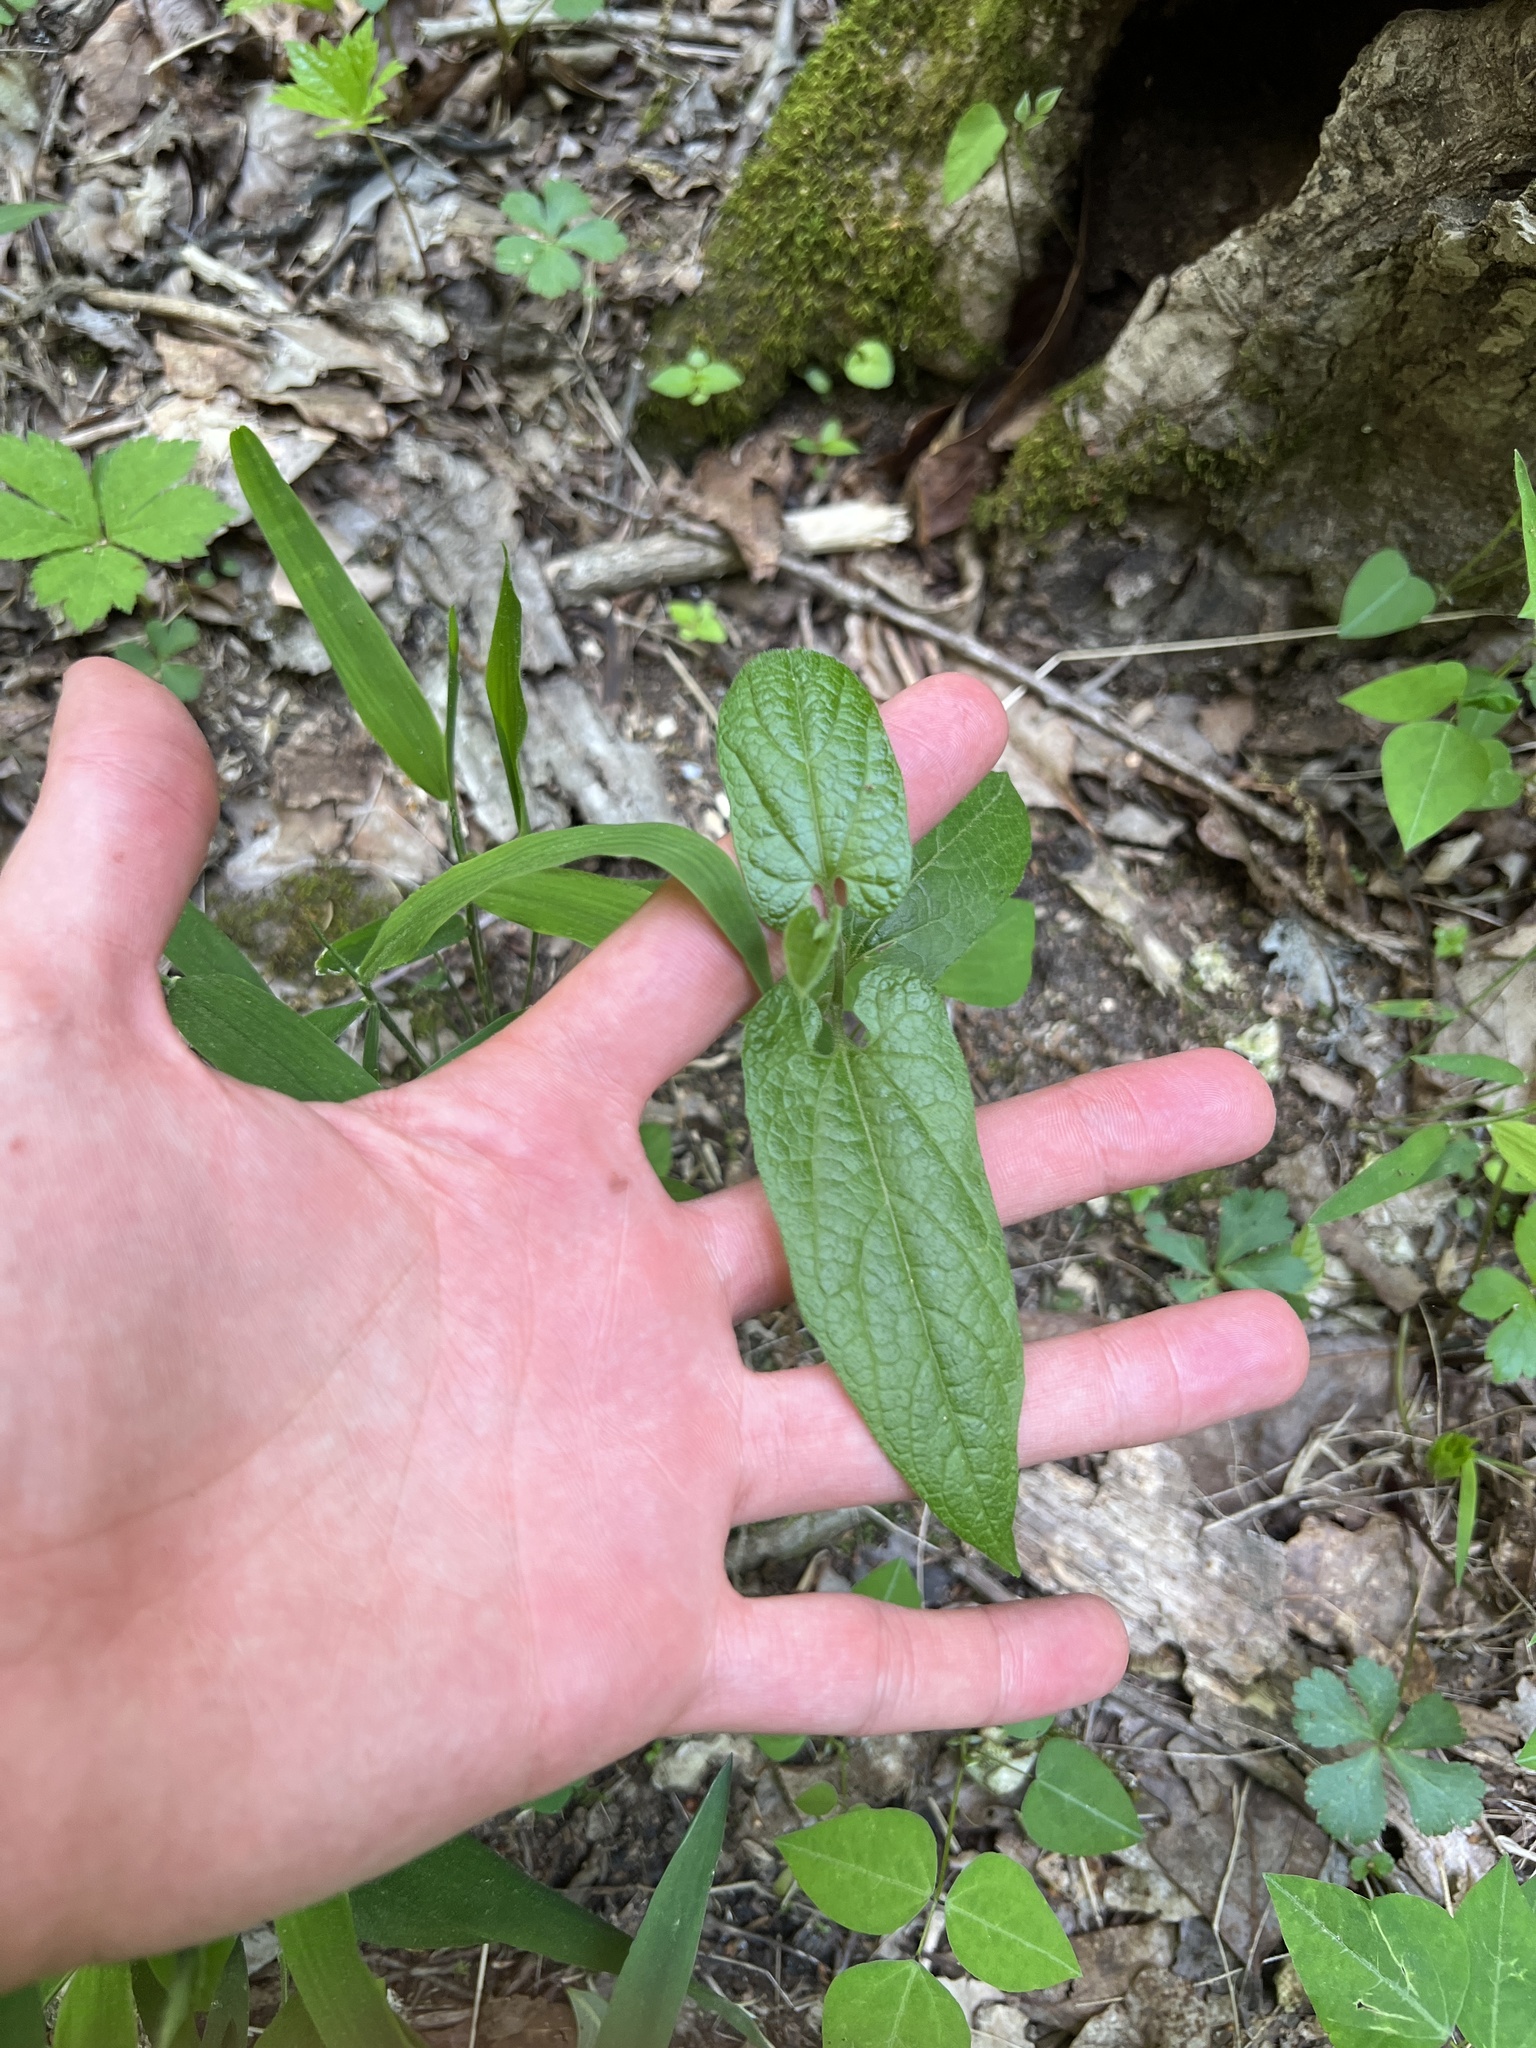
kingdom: Plantae
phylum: Tracheophyta
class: Magnoliopsida
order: Piperales
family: Aristolochiaceae
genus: Endodeca
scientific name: Endodeca serpentaria
